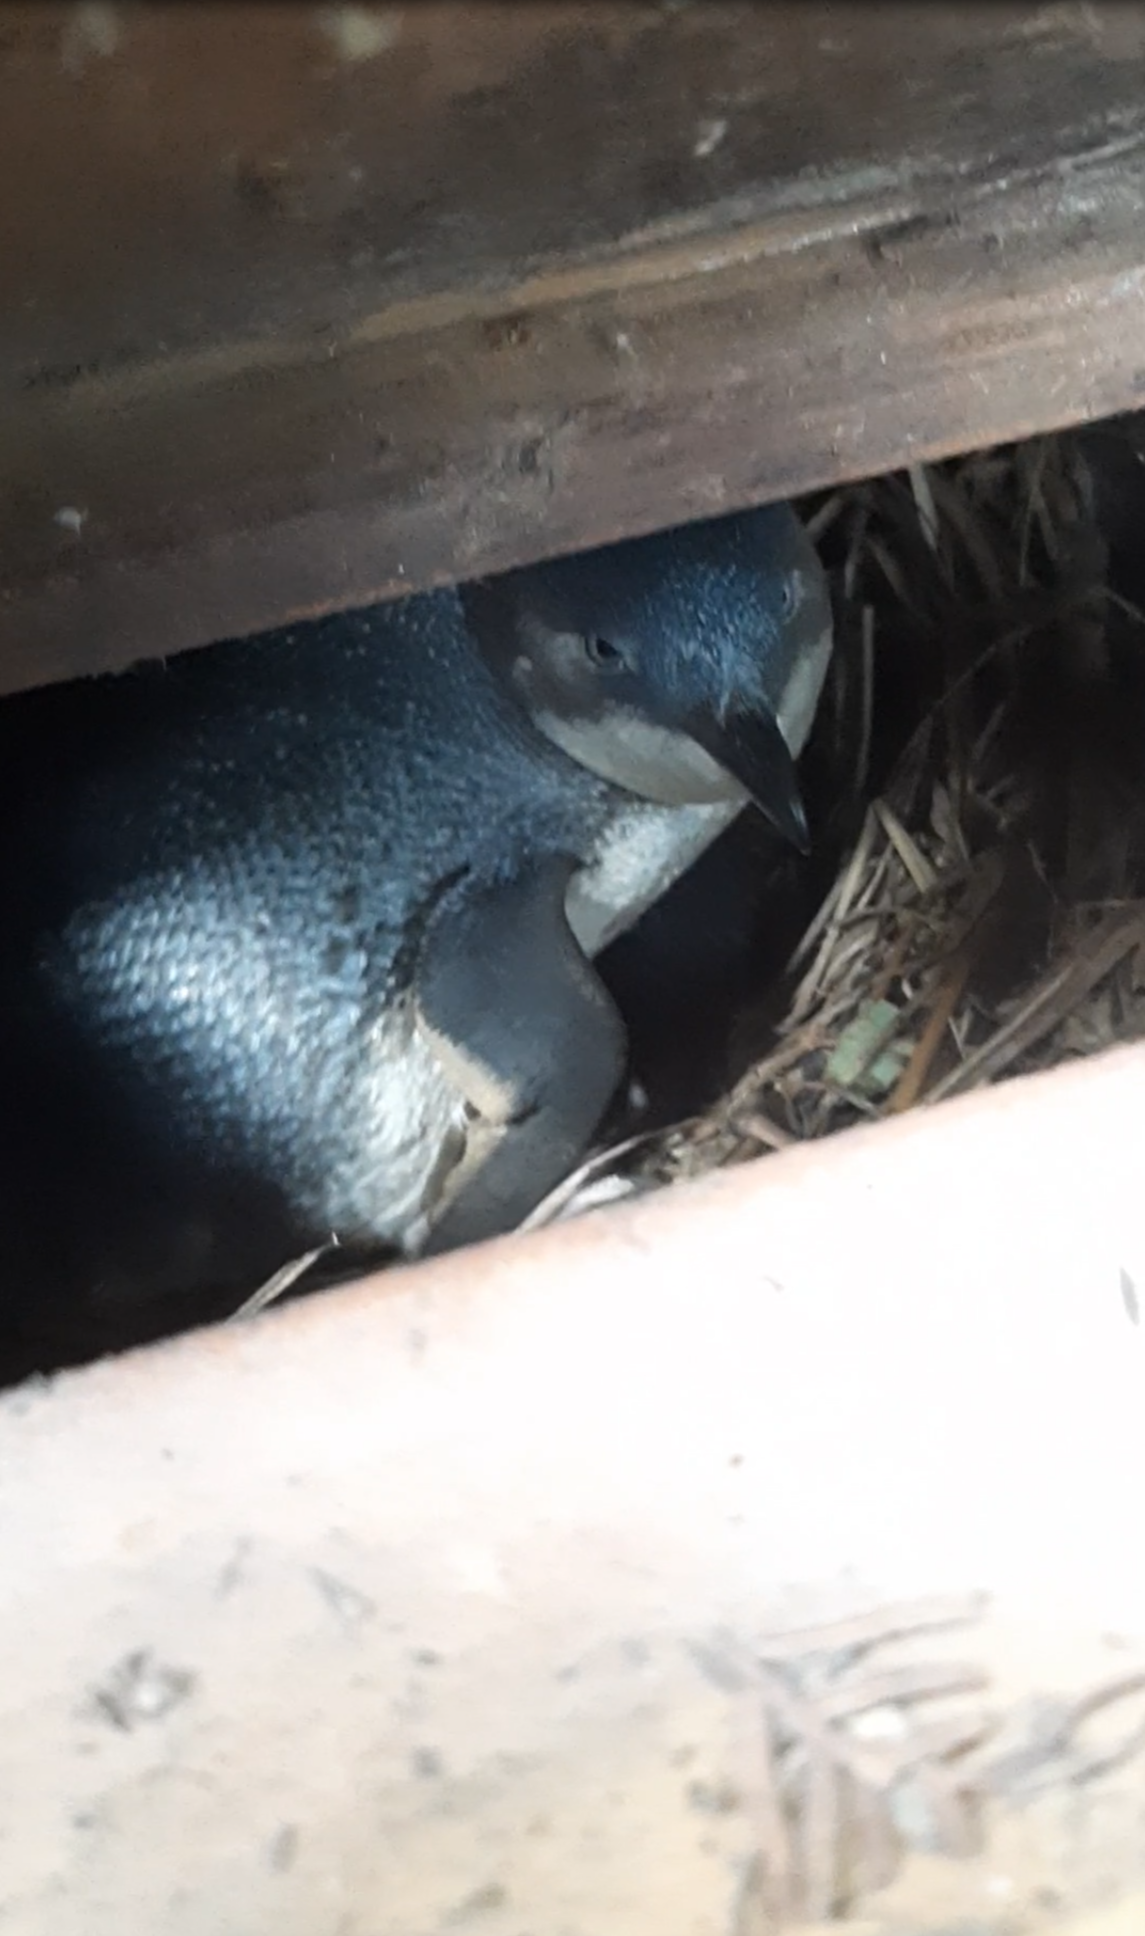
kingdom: Animalia
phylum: Chordata
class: Aves
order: Sphenisciformes
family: Spheniscidae
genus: Eudyptula
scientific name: Eudyptula minor
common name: Little penguin
